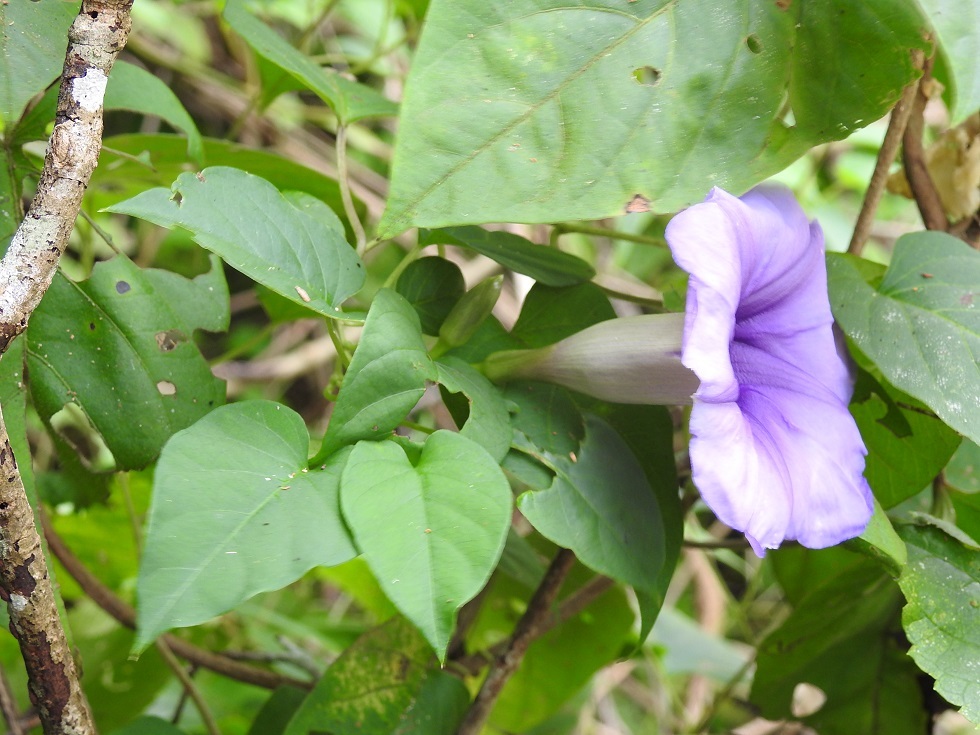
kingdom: Plantae
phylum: Tracheophyta
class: Magnoliopsida
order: Solanales
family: Convolvulaceae
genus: Ipomoea
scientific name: Ipomoea lindenii
